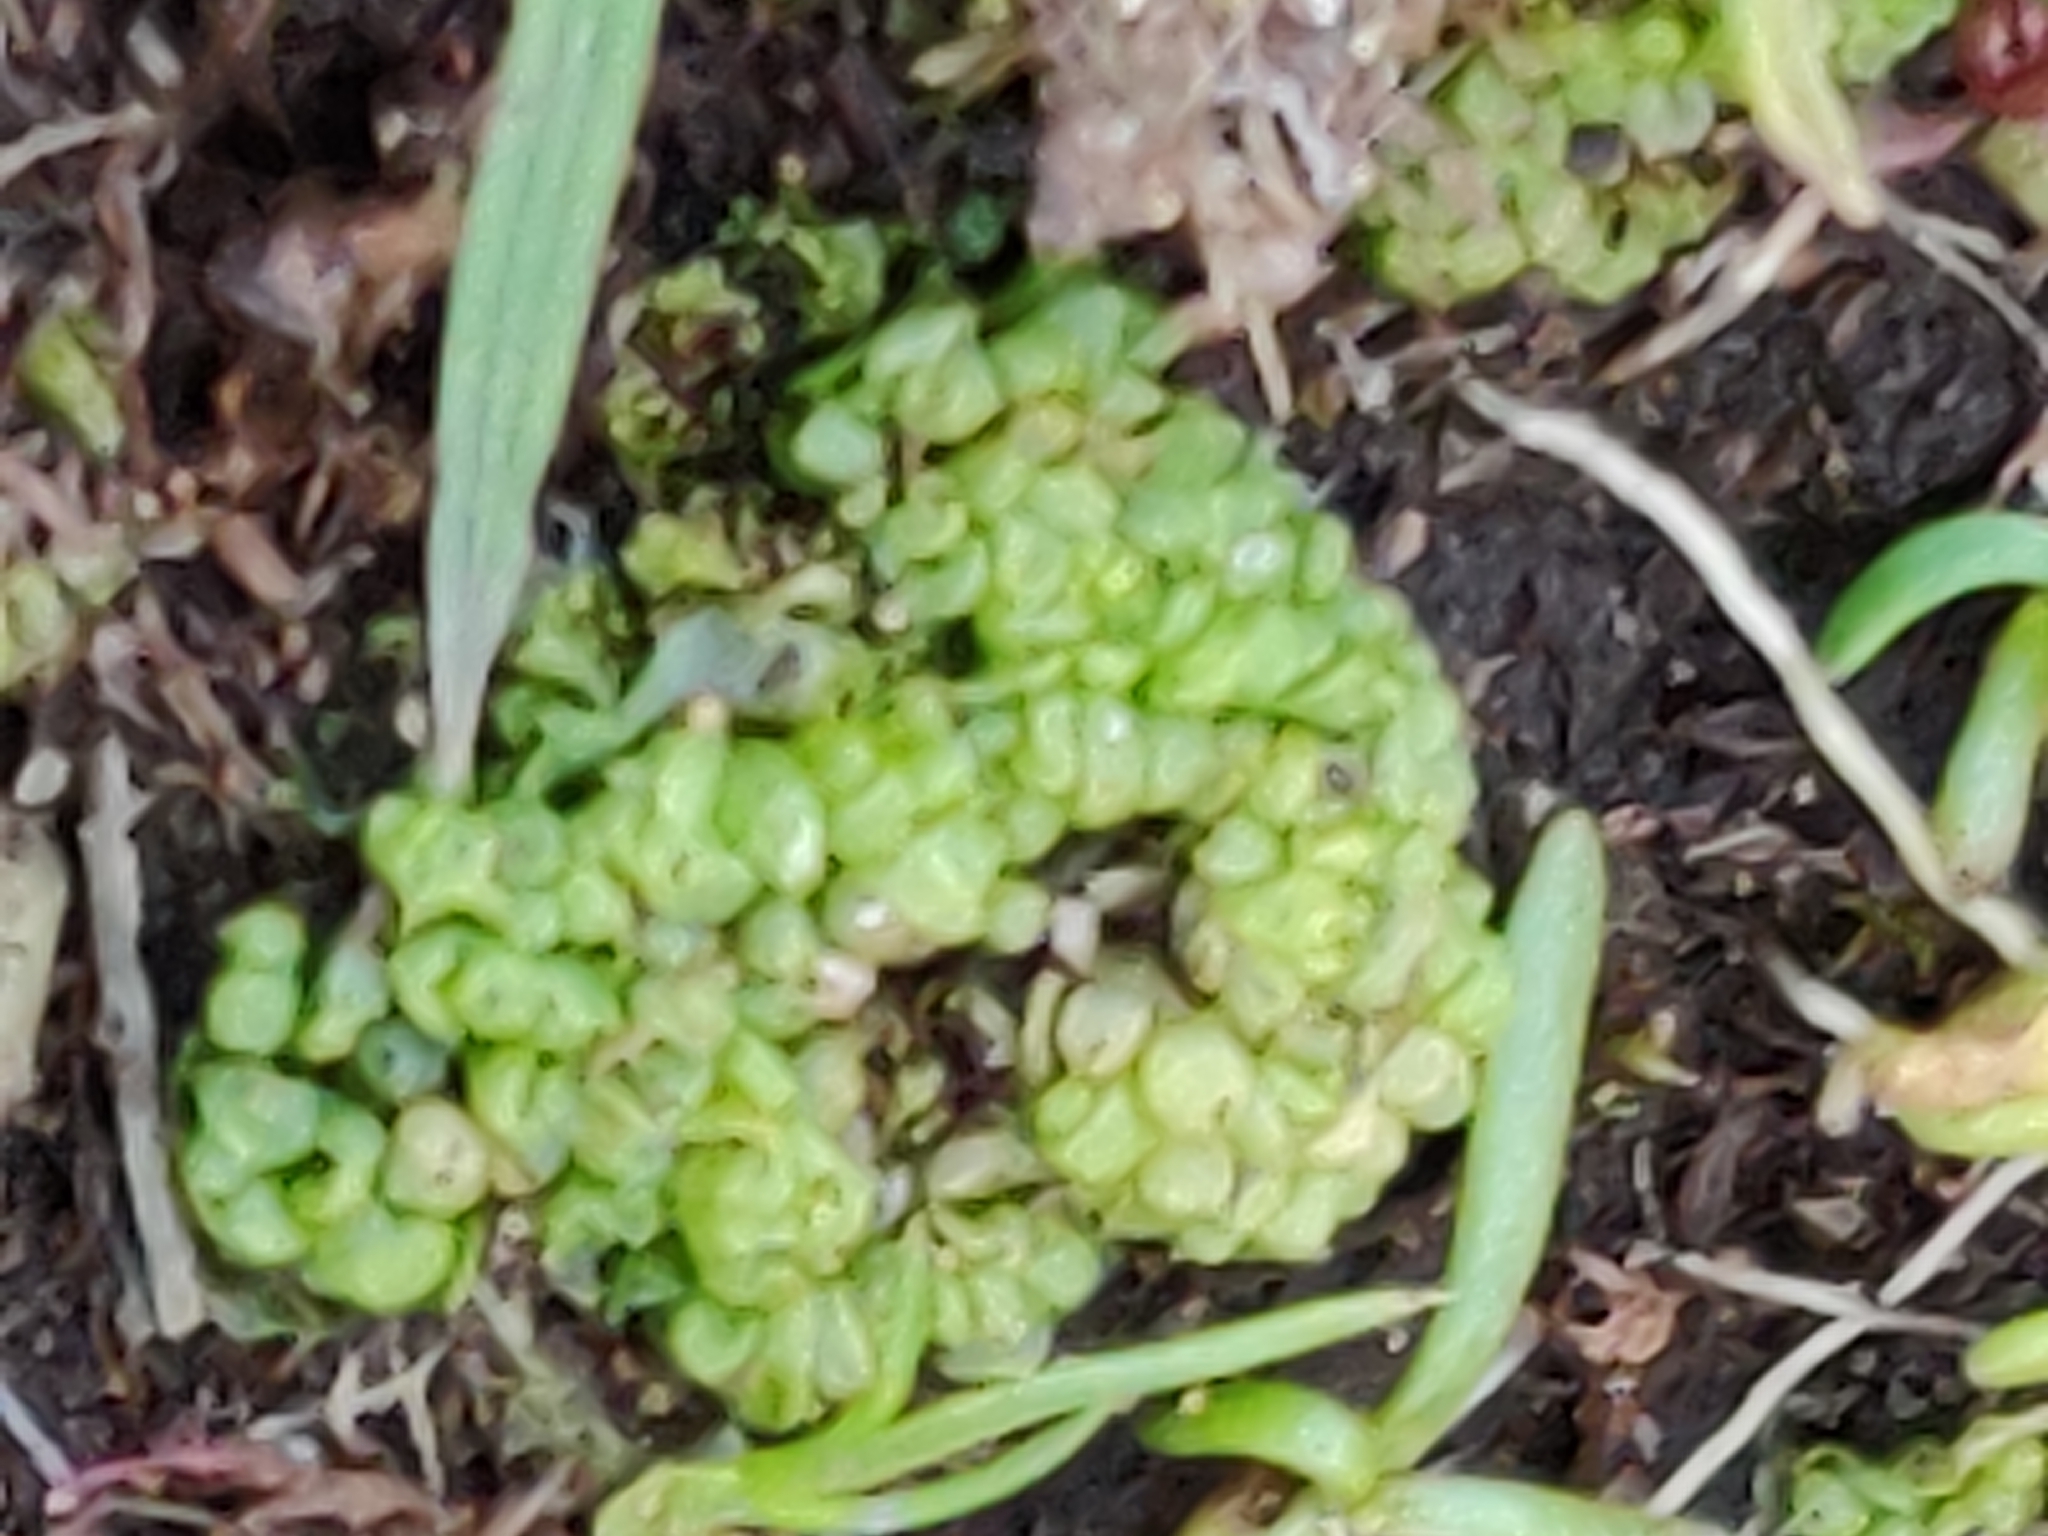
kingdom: Plantae
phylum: Marchantiophyta
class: Marchantiopsida
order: Sphaerocarpales
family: Sphaerocarpaceae
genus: Sphaerocarpos
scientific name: Sphaerocarpos texanus
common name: Texas balloonwort
